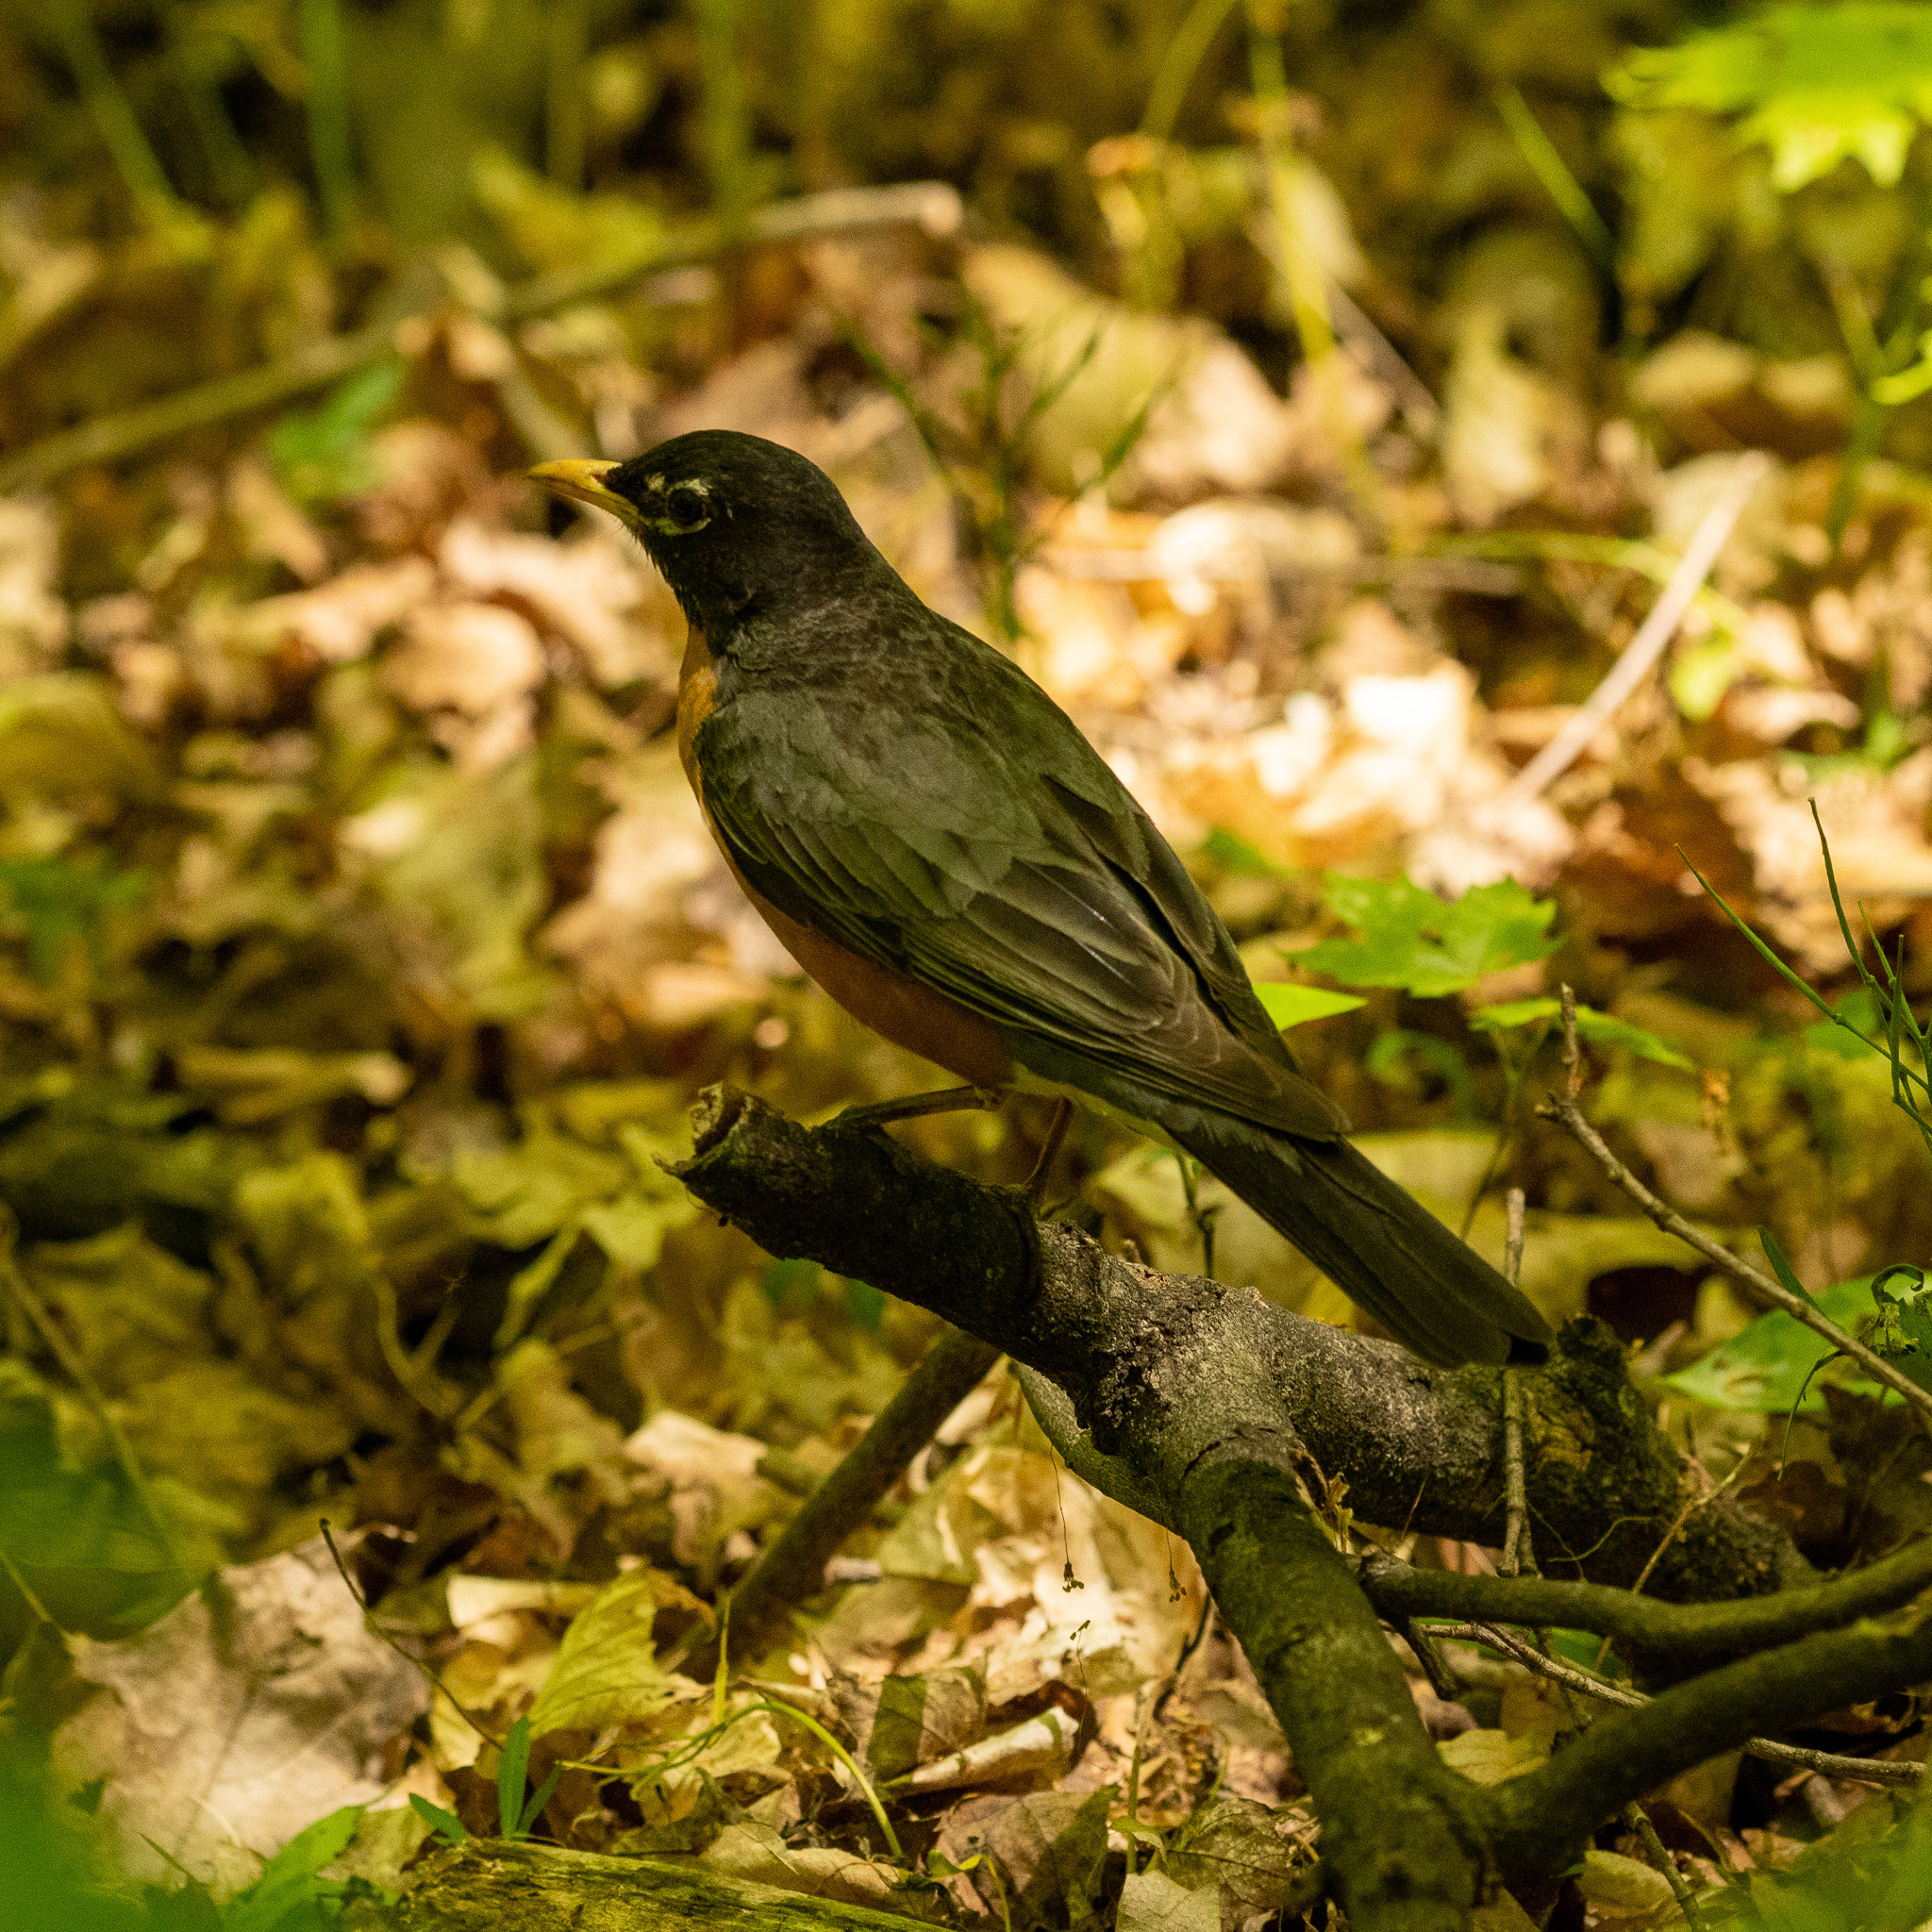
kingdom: Animalia
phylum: Chordata
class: Aves
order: Passeriformes
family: Turdidae
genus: Turdus
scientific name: Turdus migratorius
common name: American robin
